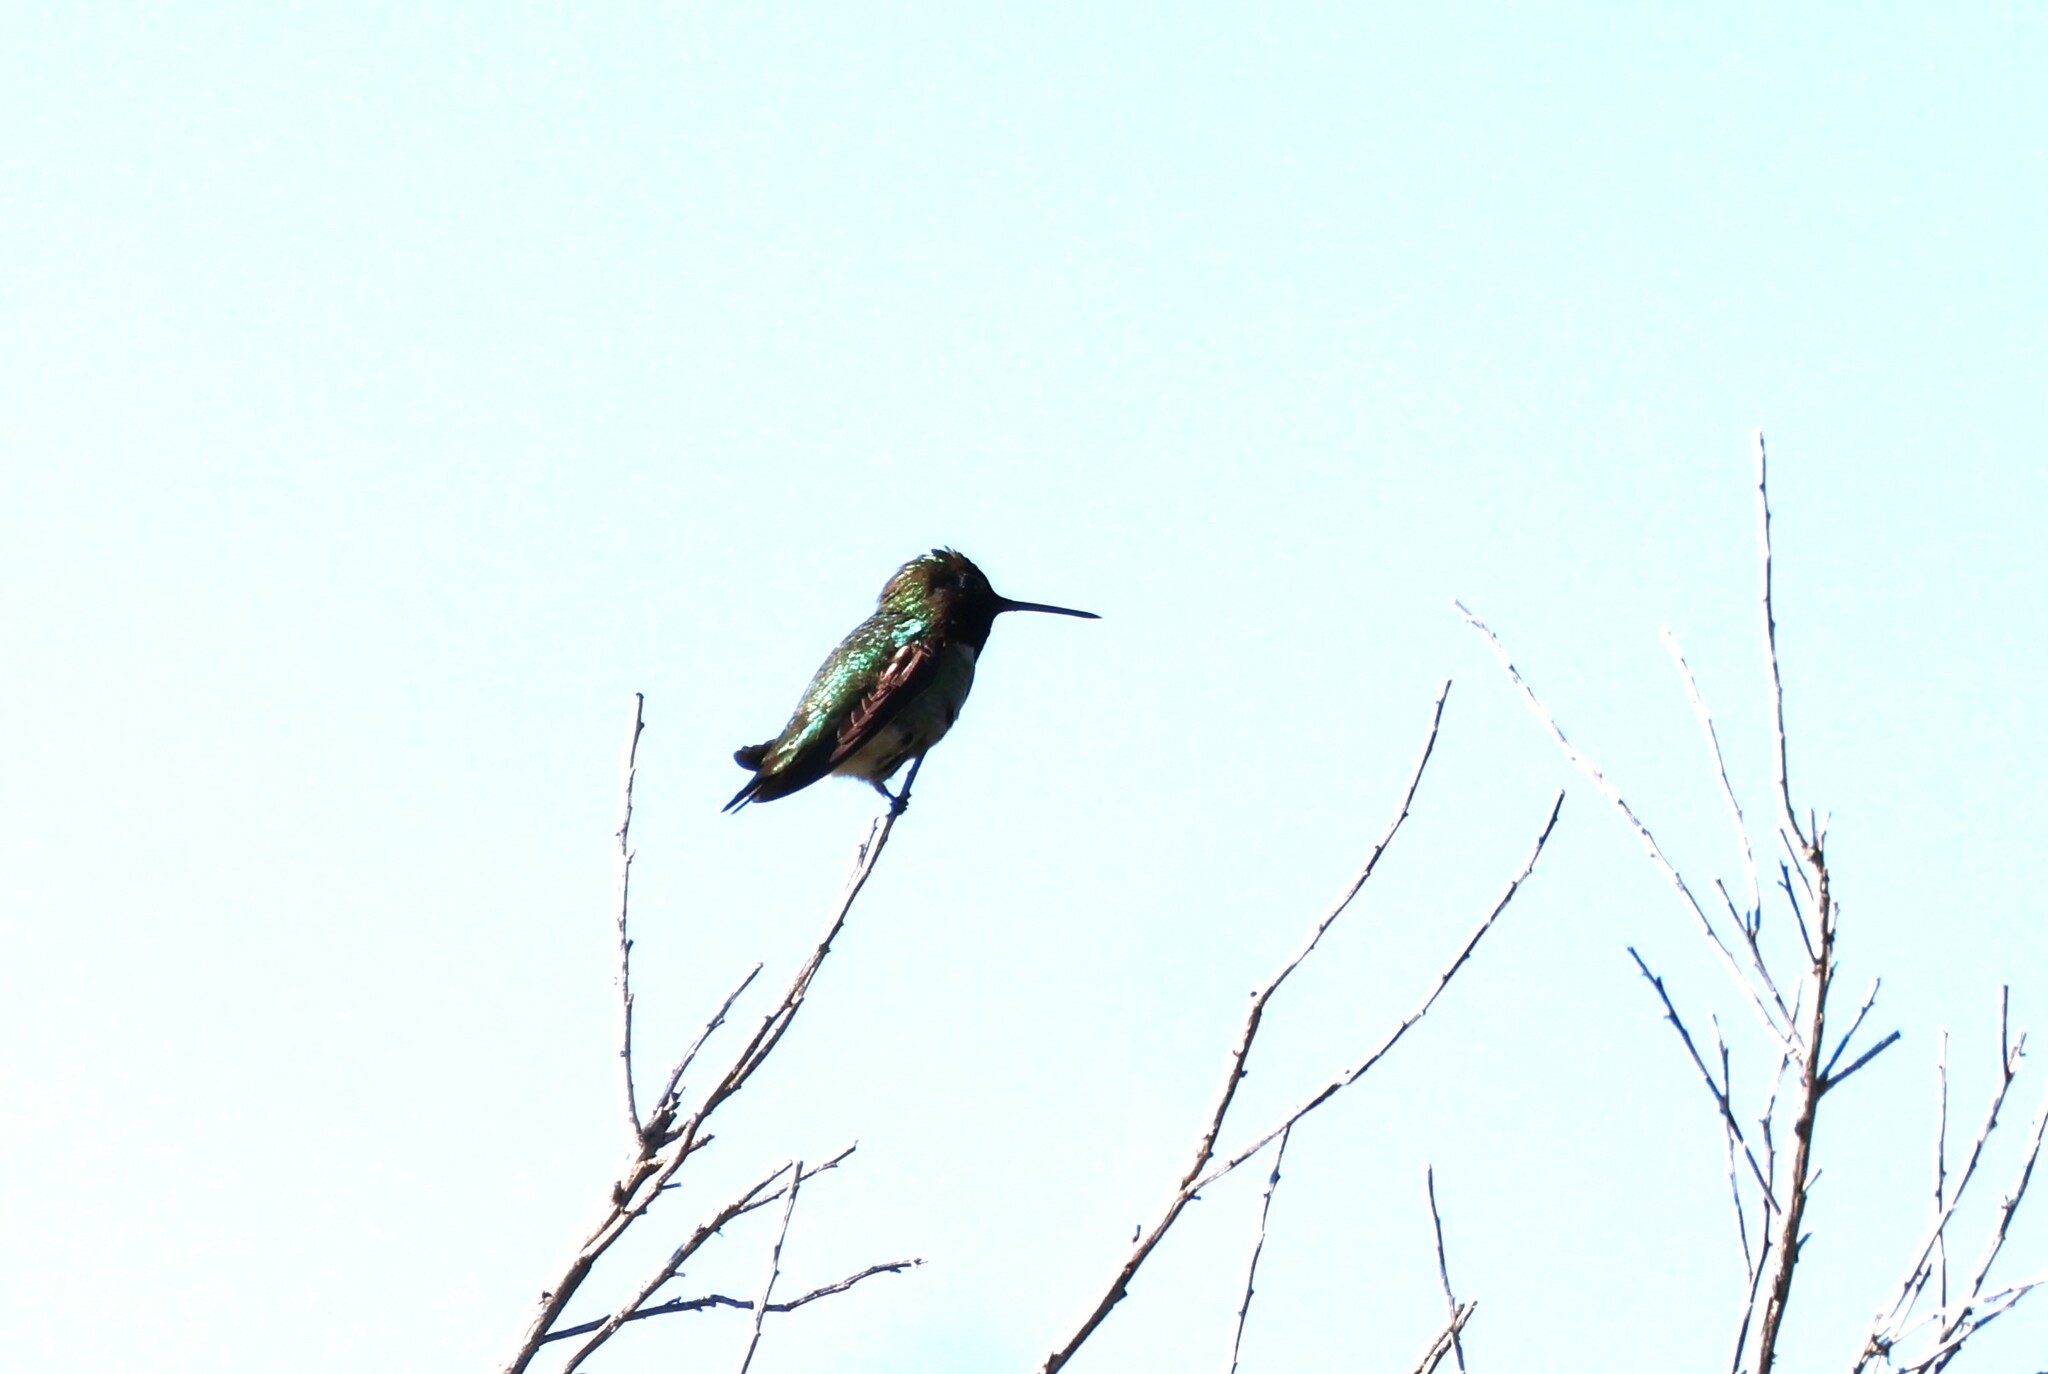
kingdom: Animalia
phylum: Chordata
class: Aves
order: Apodiformes
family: Trochilidae
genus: Calypte
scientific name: Calypte anna
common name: Anna's hummingbird
